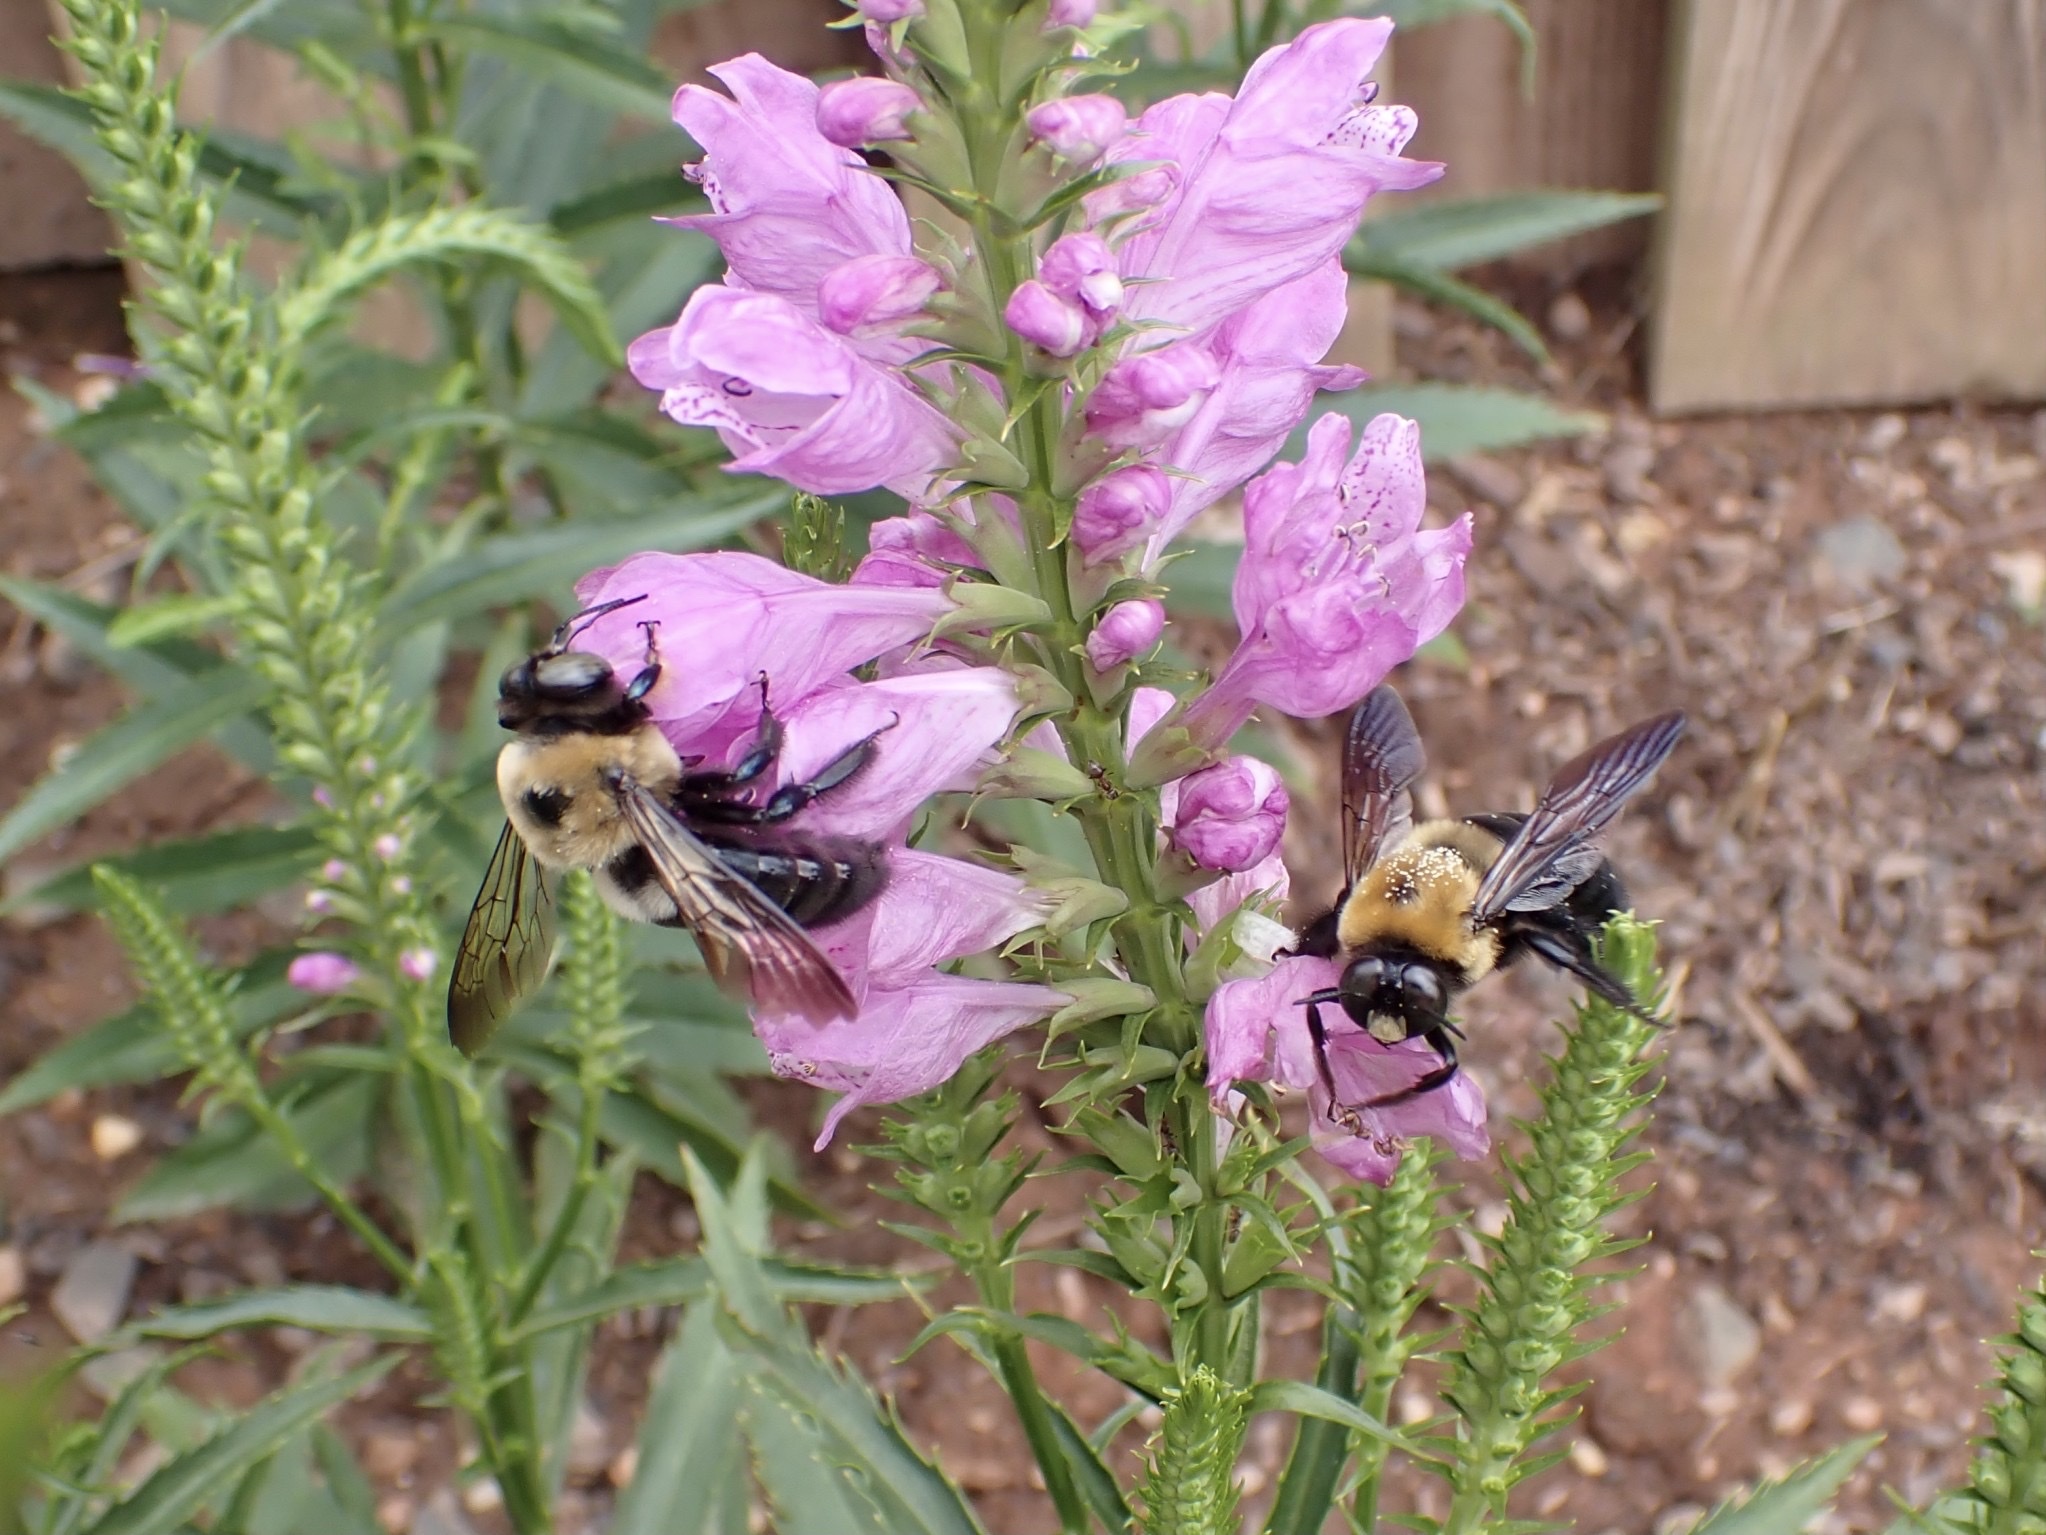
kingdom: Animalia
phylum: Arthropoda
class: Insecta
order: Hymenoptera
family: Apidae
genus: Xylocopa
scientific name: Xylocopa virginica
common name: Carpenter bee
